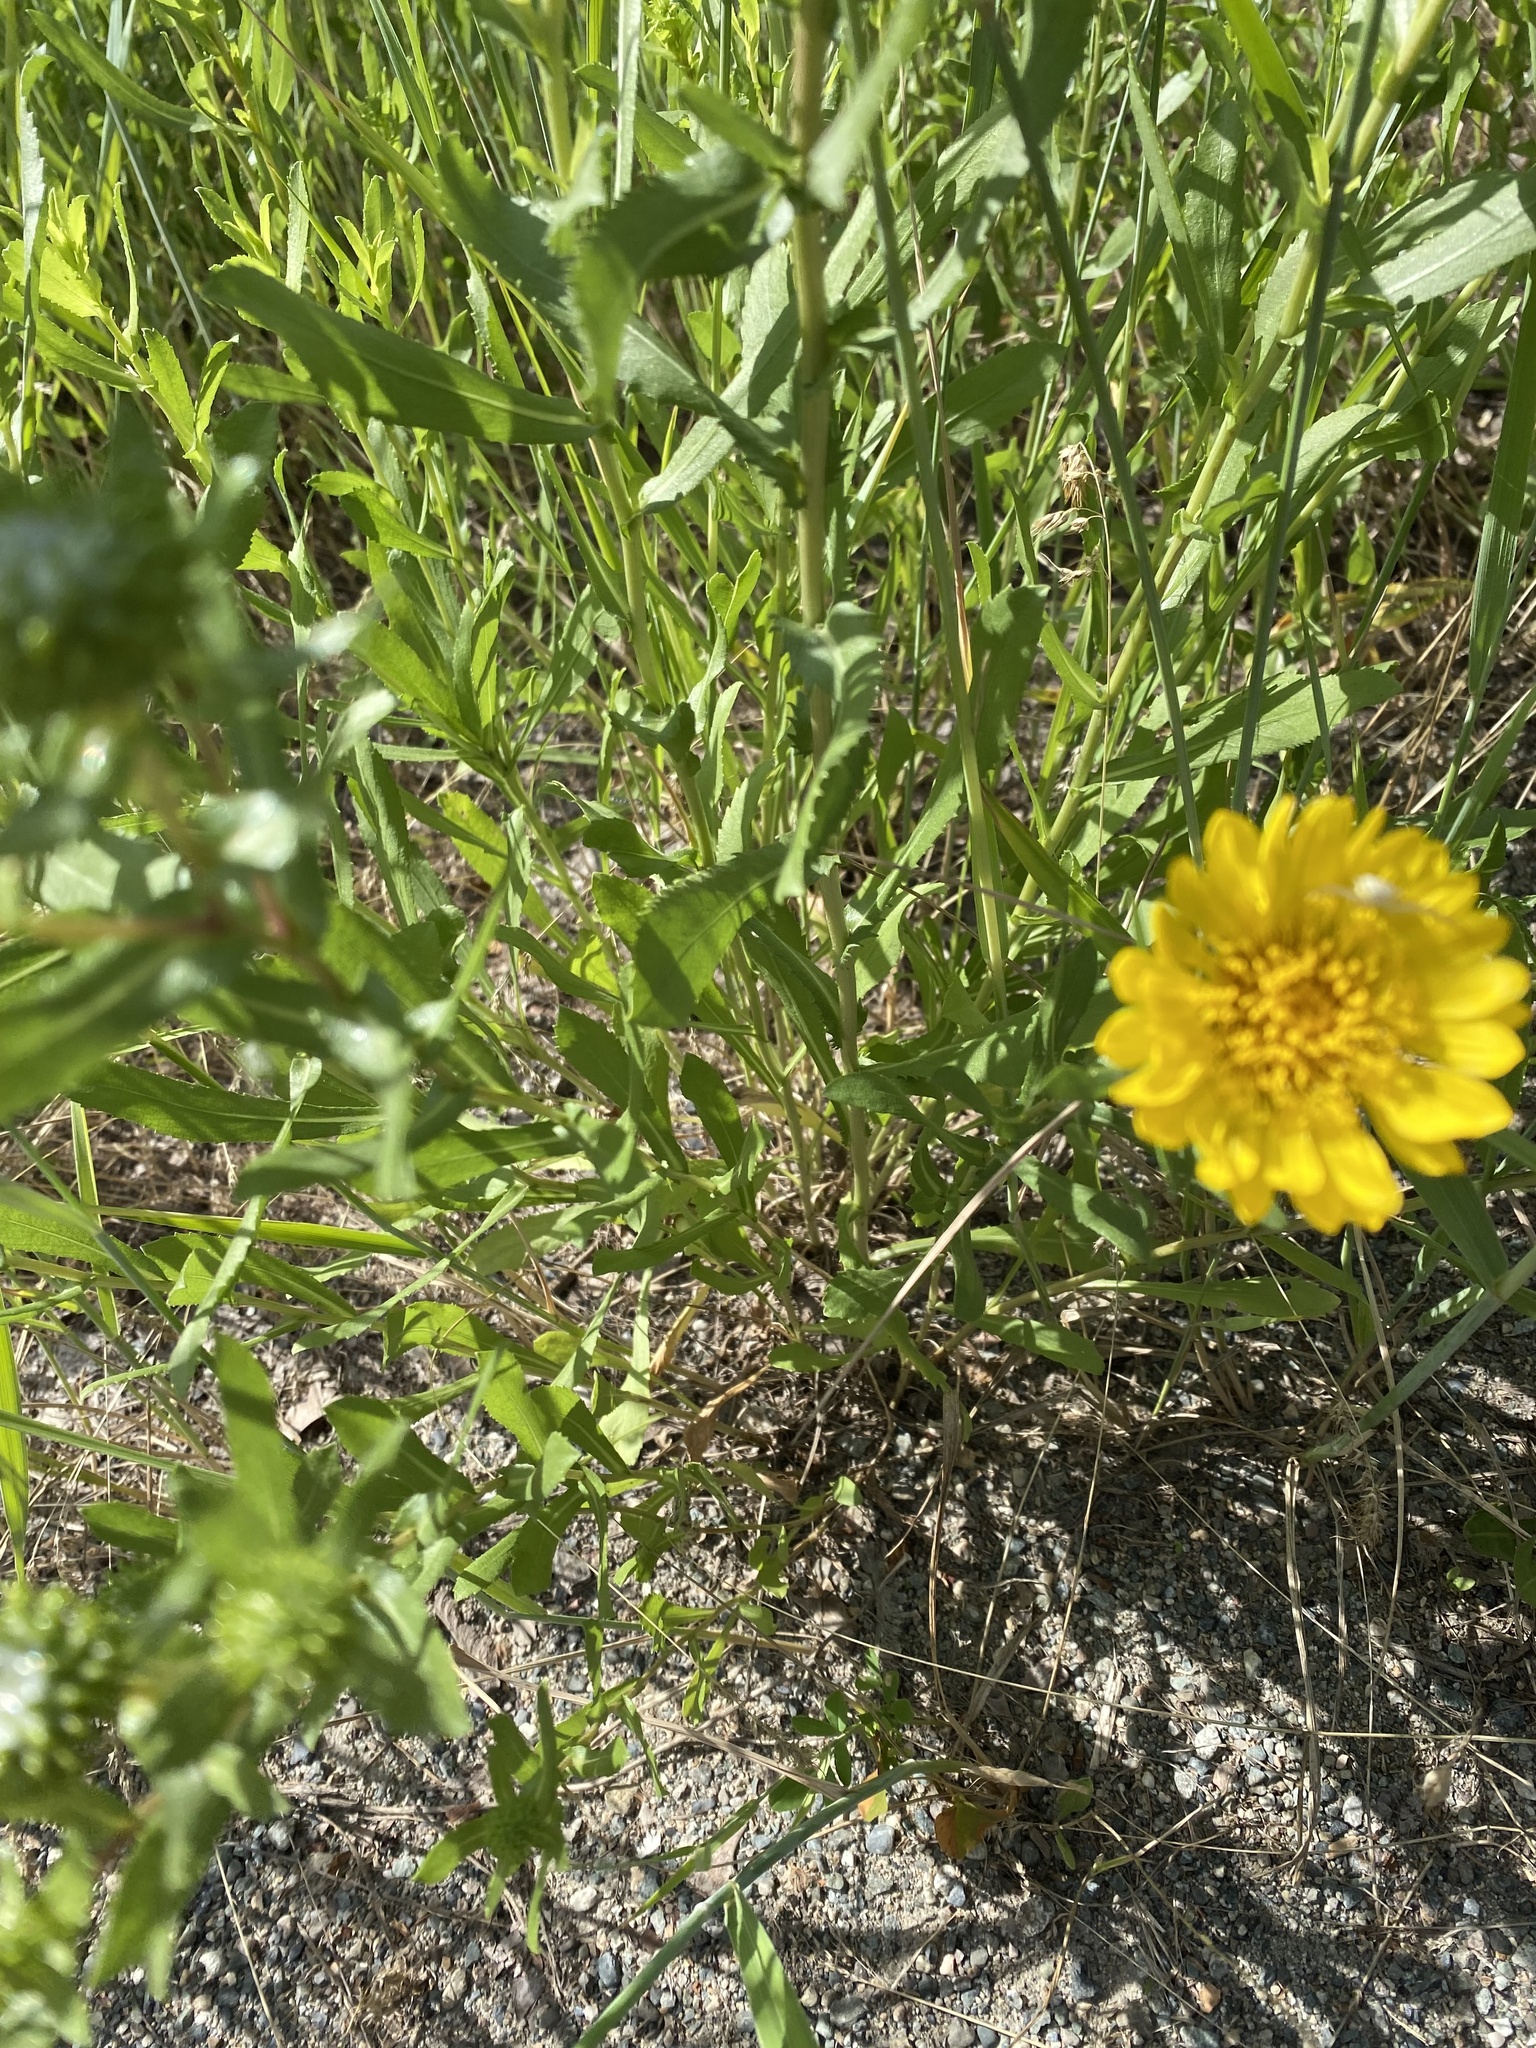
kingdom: Plantae
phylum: Tracheophyta
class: Magnoliopsida
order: Asterales
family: Asteraceae
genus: Grindelia
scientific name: Grindelia squarrosa
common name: Curly-cup gumweed
